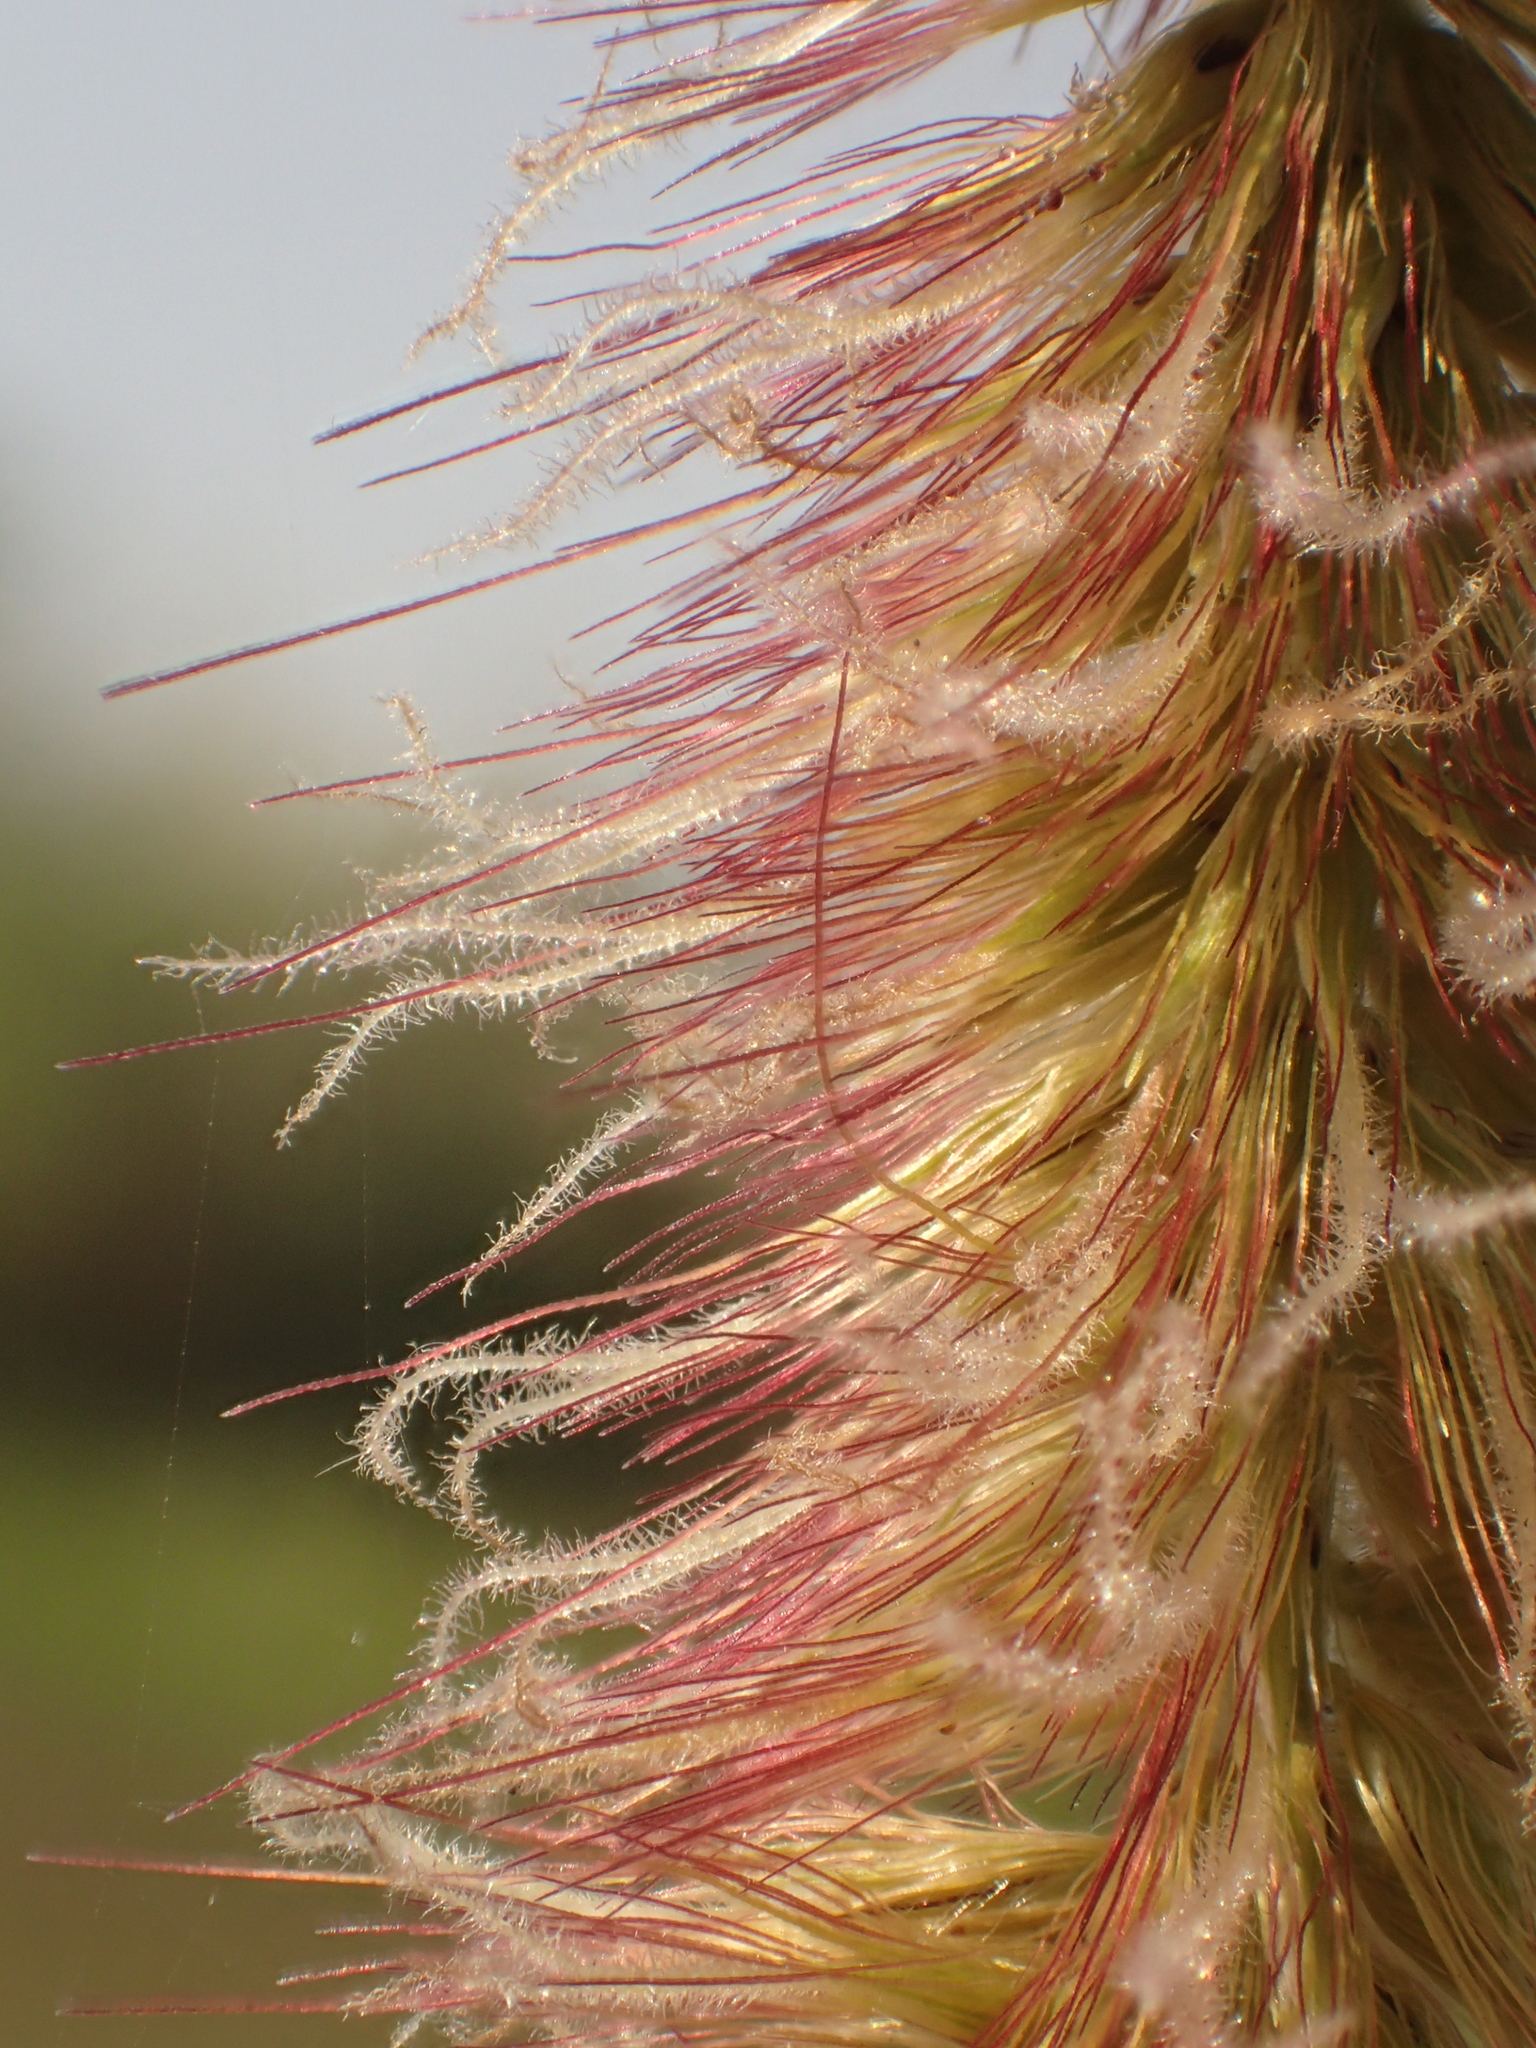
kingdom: Plantae
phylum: Tracheophyta
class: Liliopsida
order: Poales
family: Poaceae
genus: Cenchrus
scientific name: Cenchrus purpureus
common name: Elephant grass
